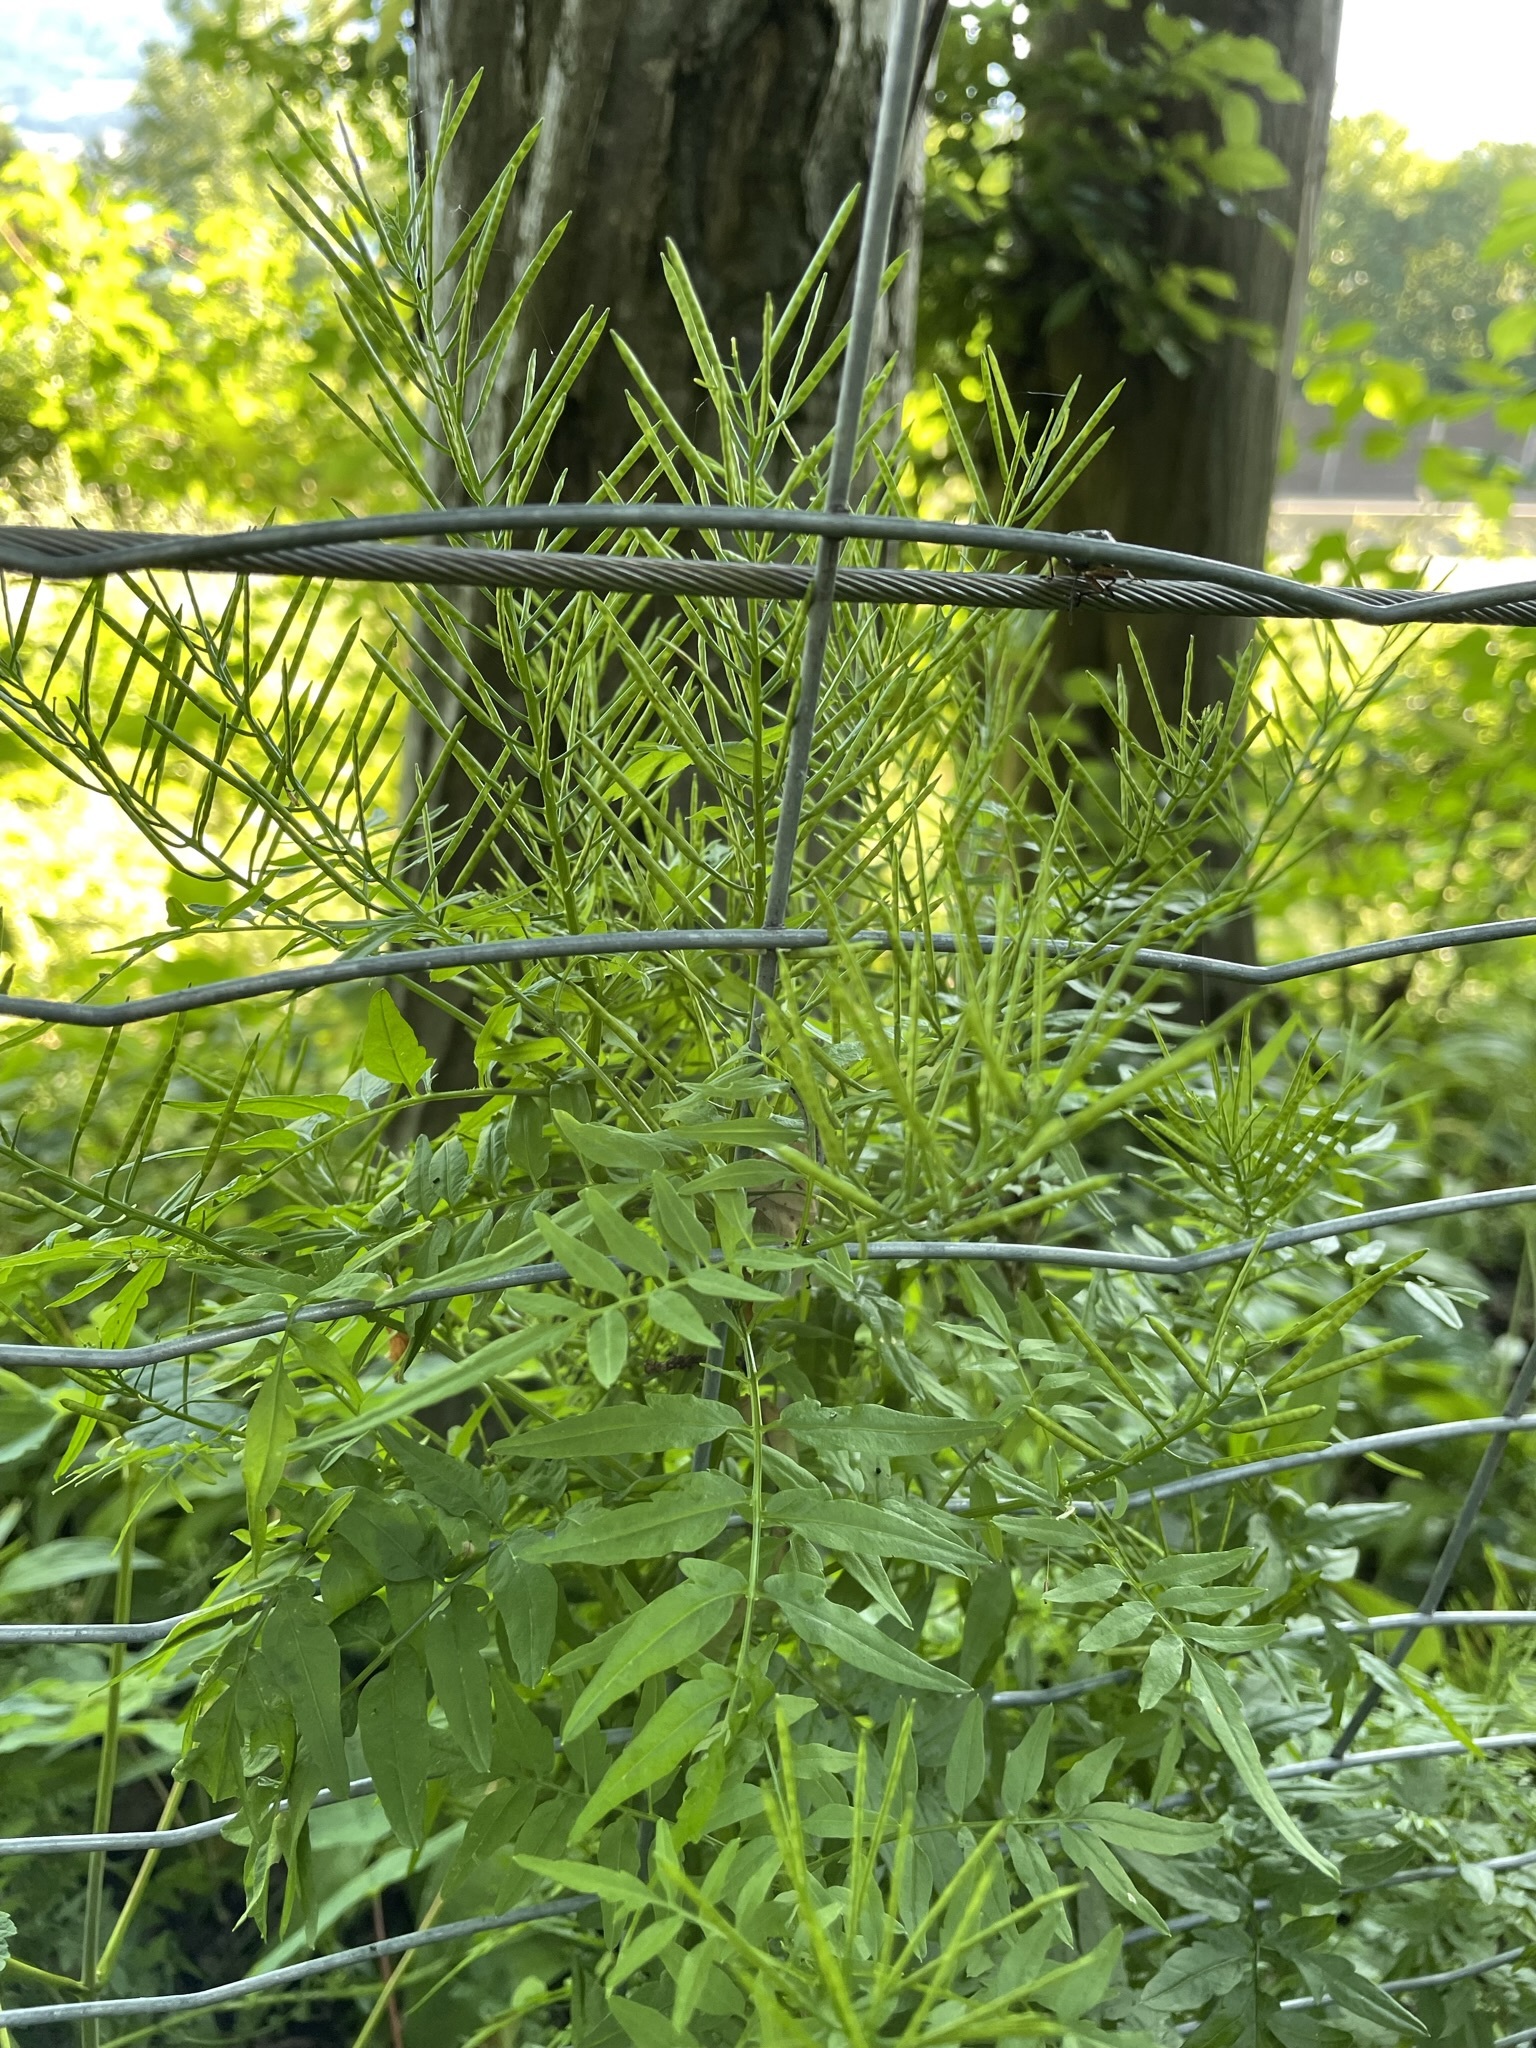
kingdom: Plantae
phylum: Tracheophyta
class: Magnoliopsida
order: Brassicales
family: Brassicaceae
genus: Cardamine
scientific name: Cardamine impatiens
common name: Narrow-leaved bitter-cress
